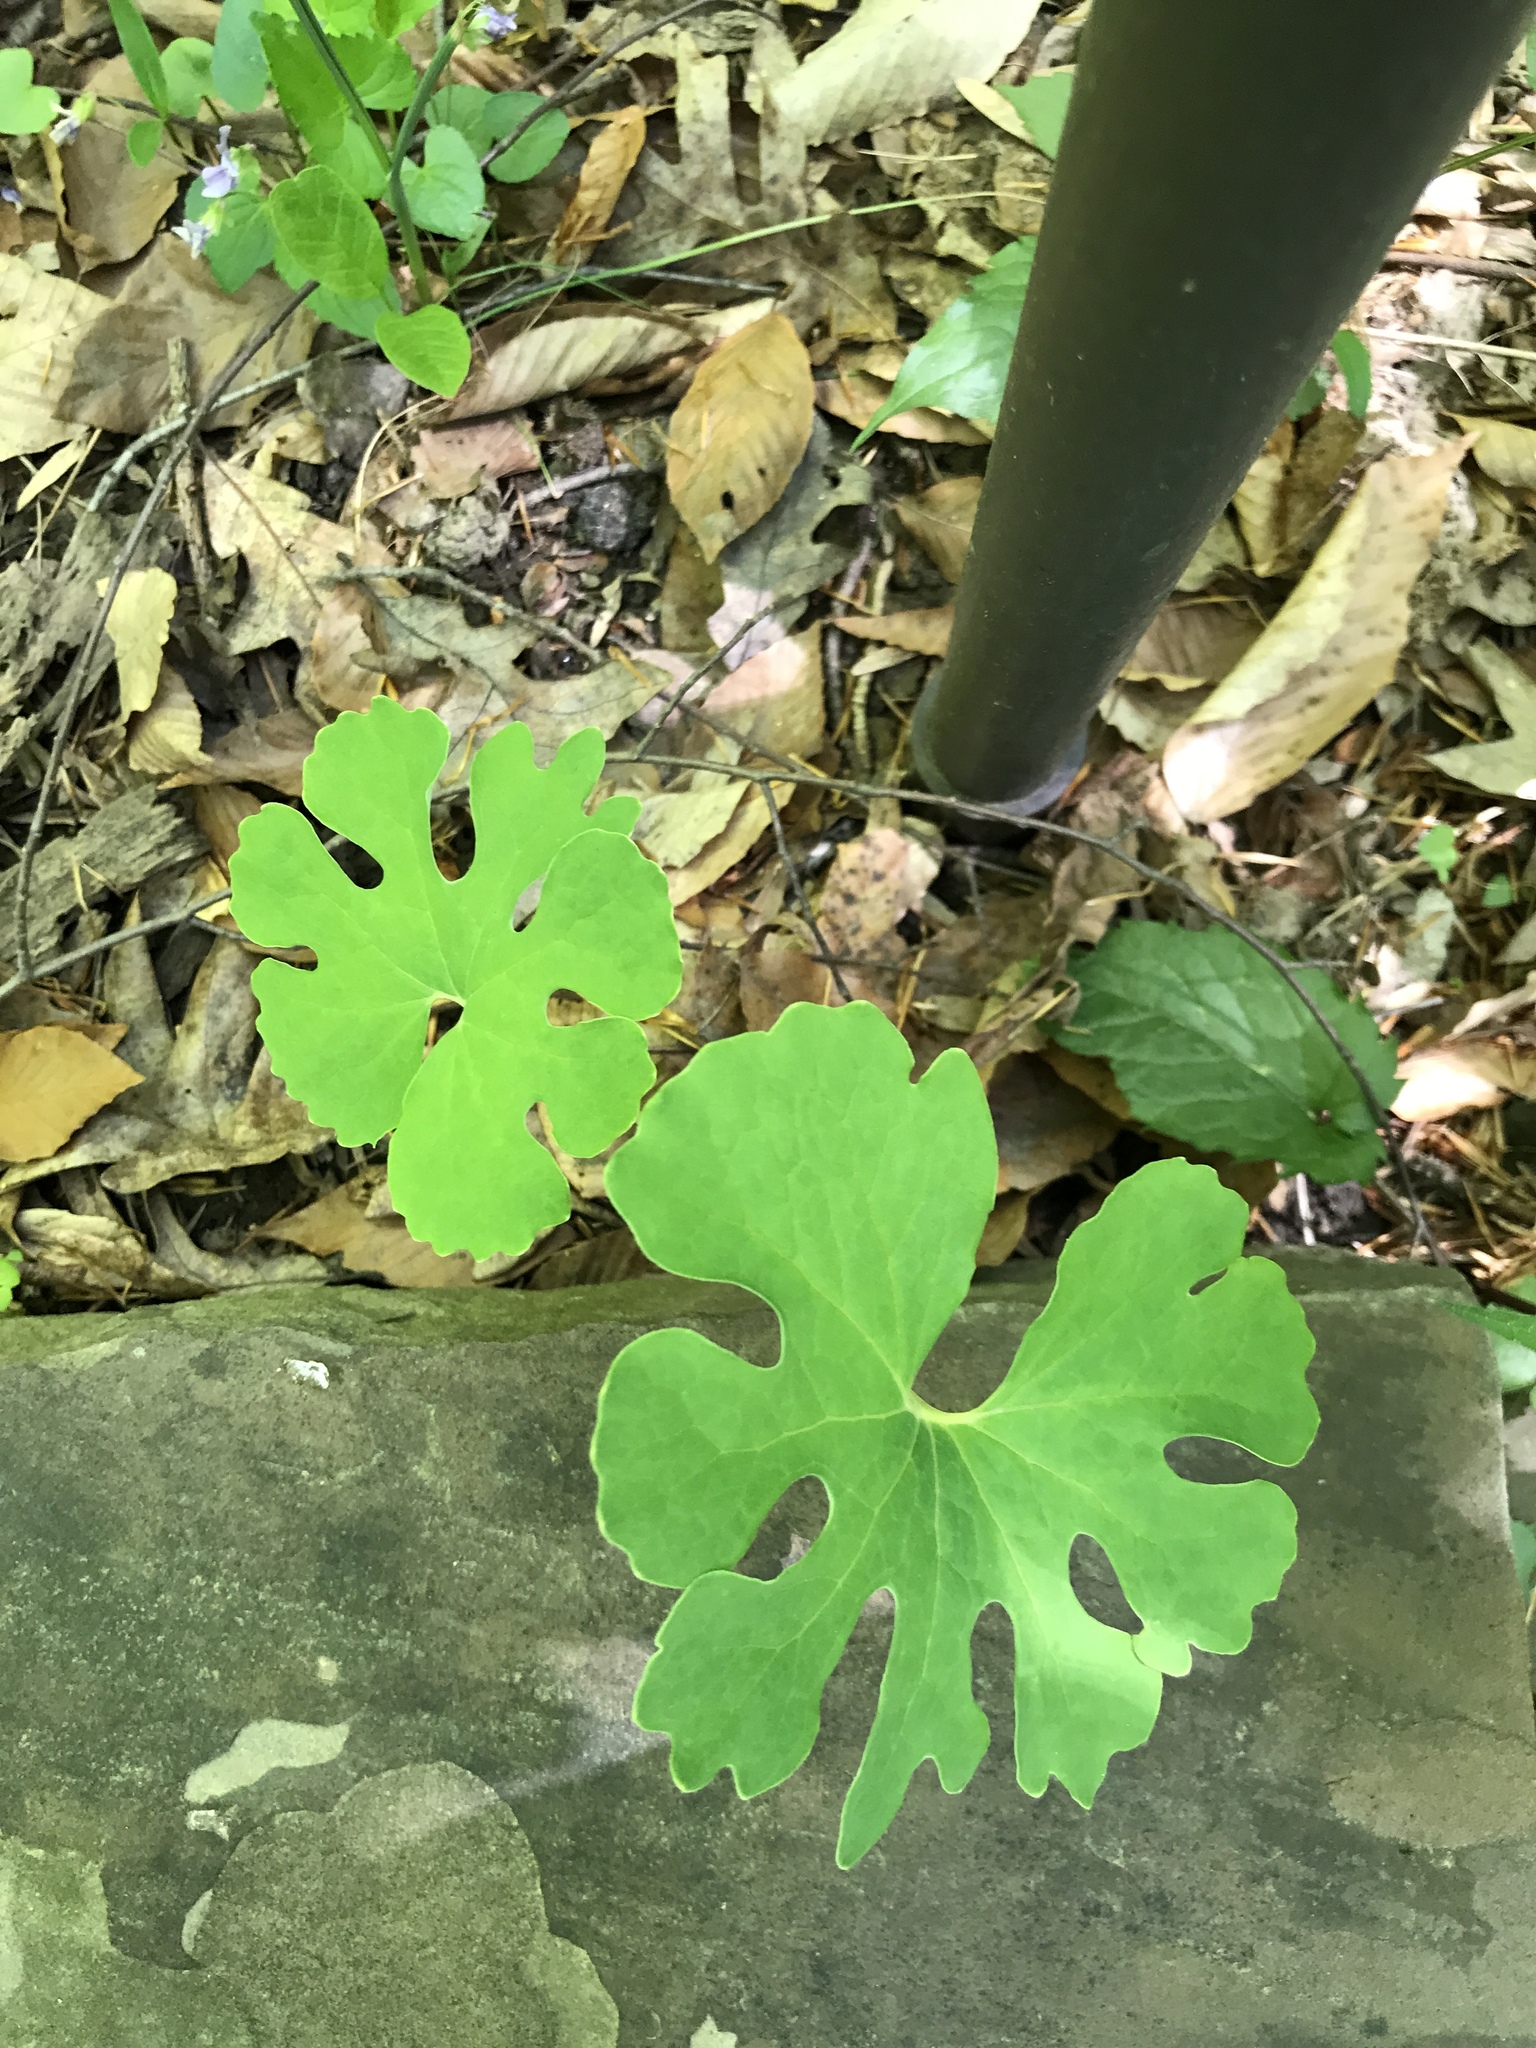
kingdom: Plantae
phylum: Tracheophyta
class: Magnoliopsida
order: Ranunculales
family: Papaveraceae
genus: Sanguinaria
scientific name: Sanguinaria canadensis
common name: Bloodroot
